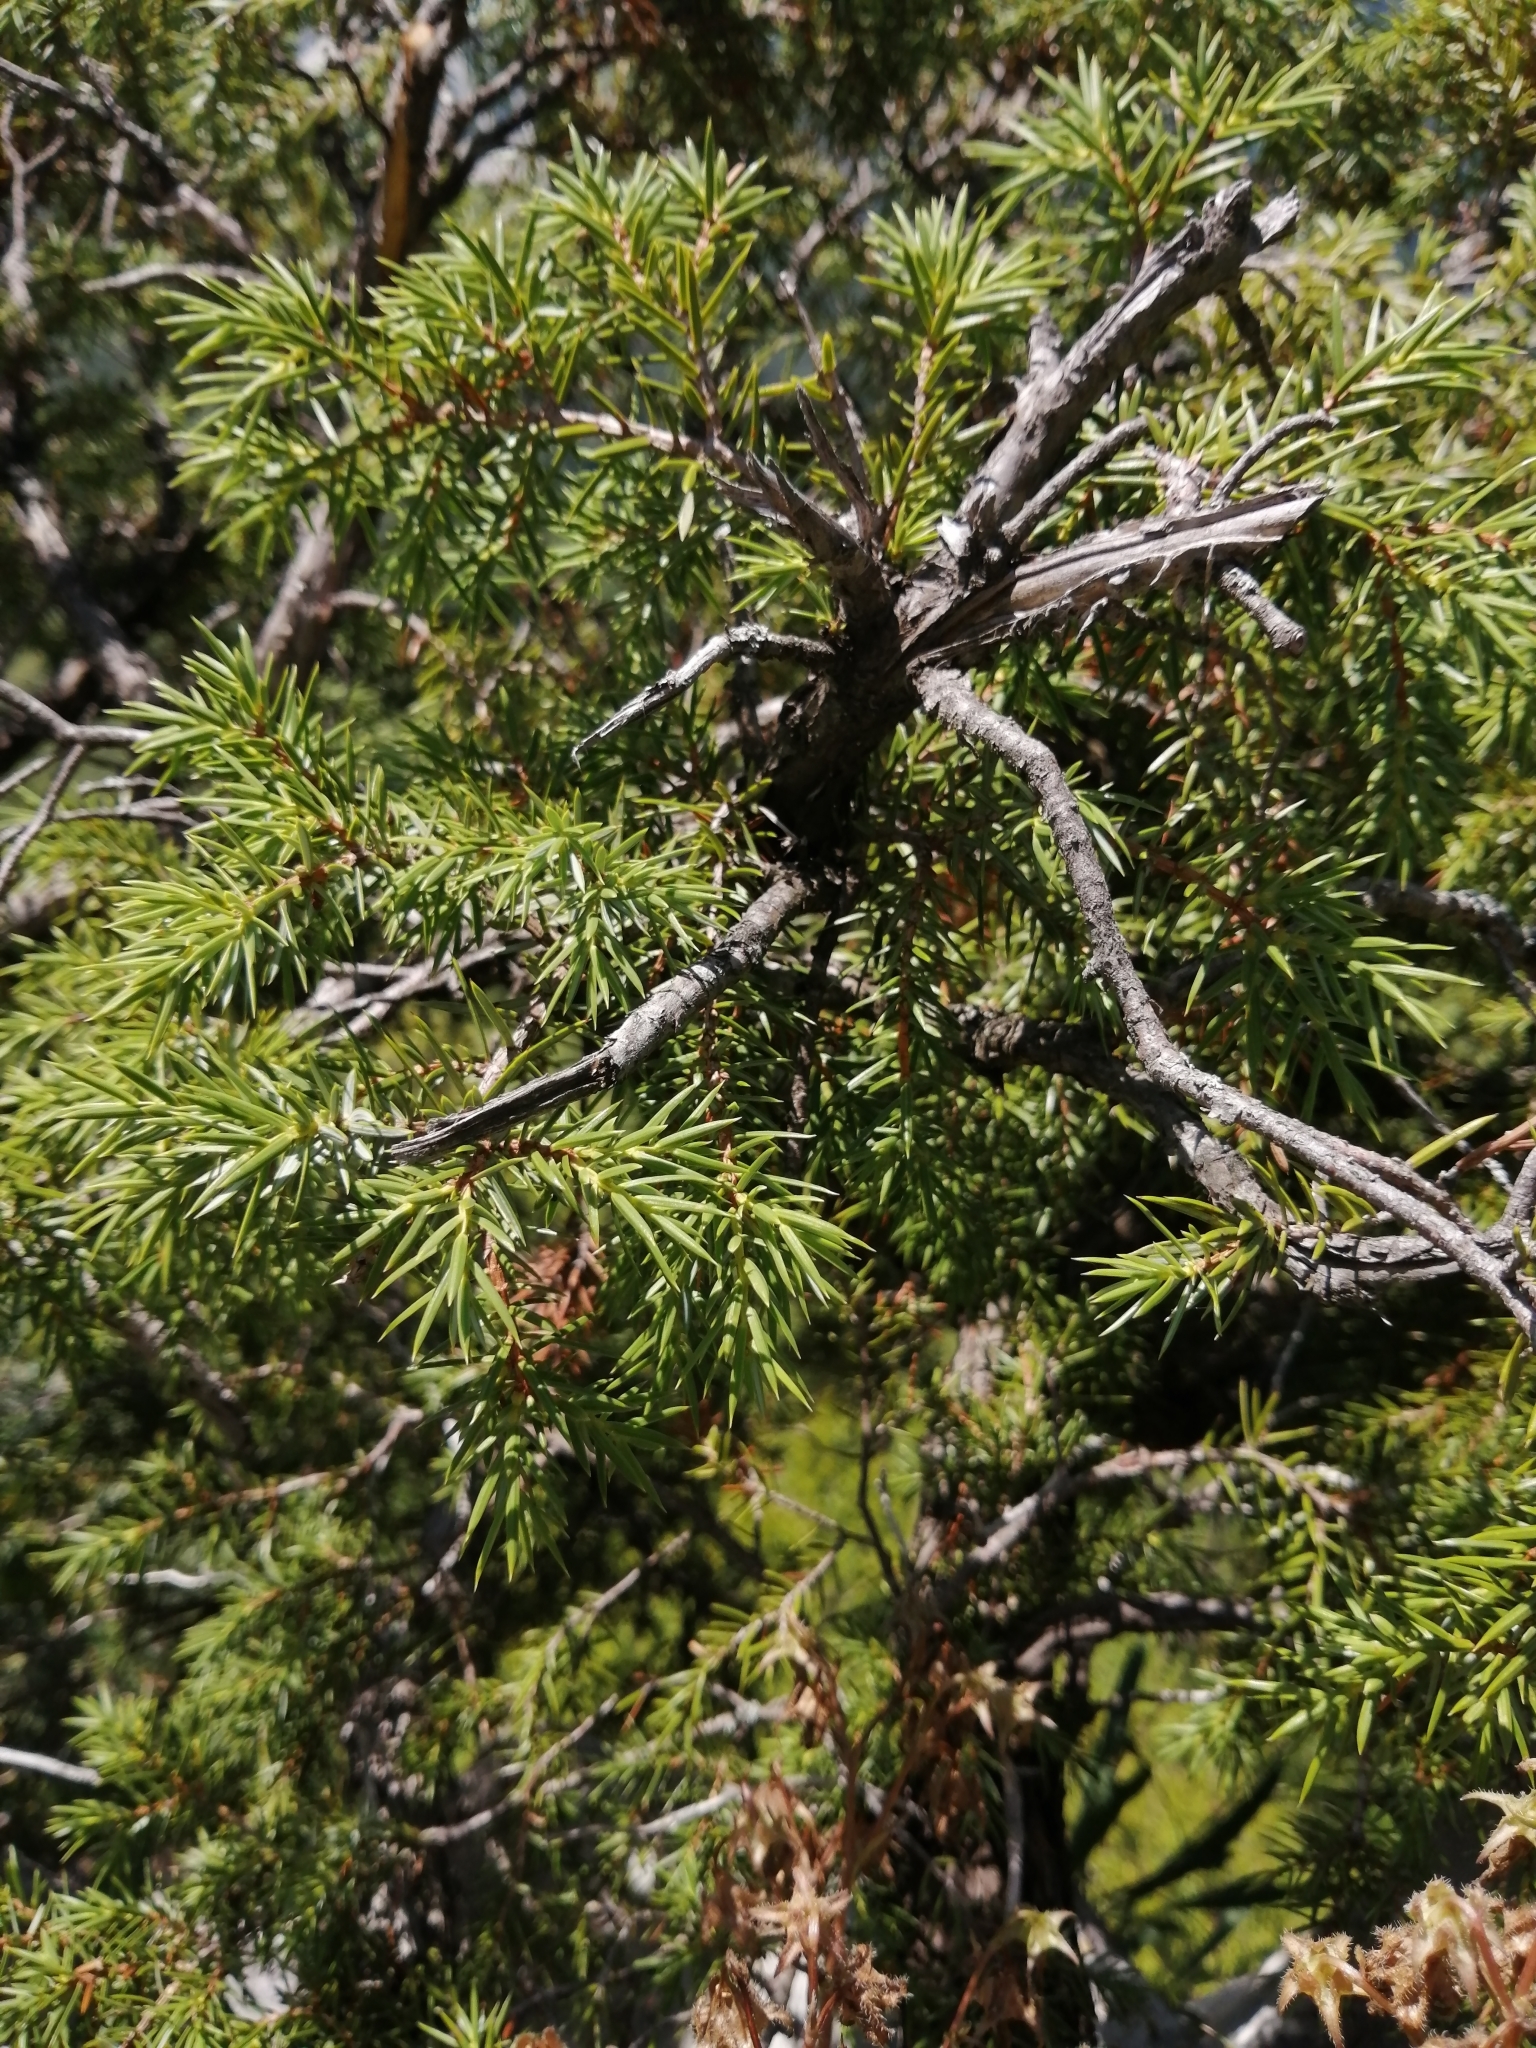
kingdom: Plantae
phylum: Tracheophyta
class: Pinopsida
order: Pinales
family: Cupressaceae
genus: Juniperus
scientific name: Juniperus communis
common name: Common juniper
